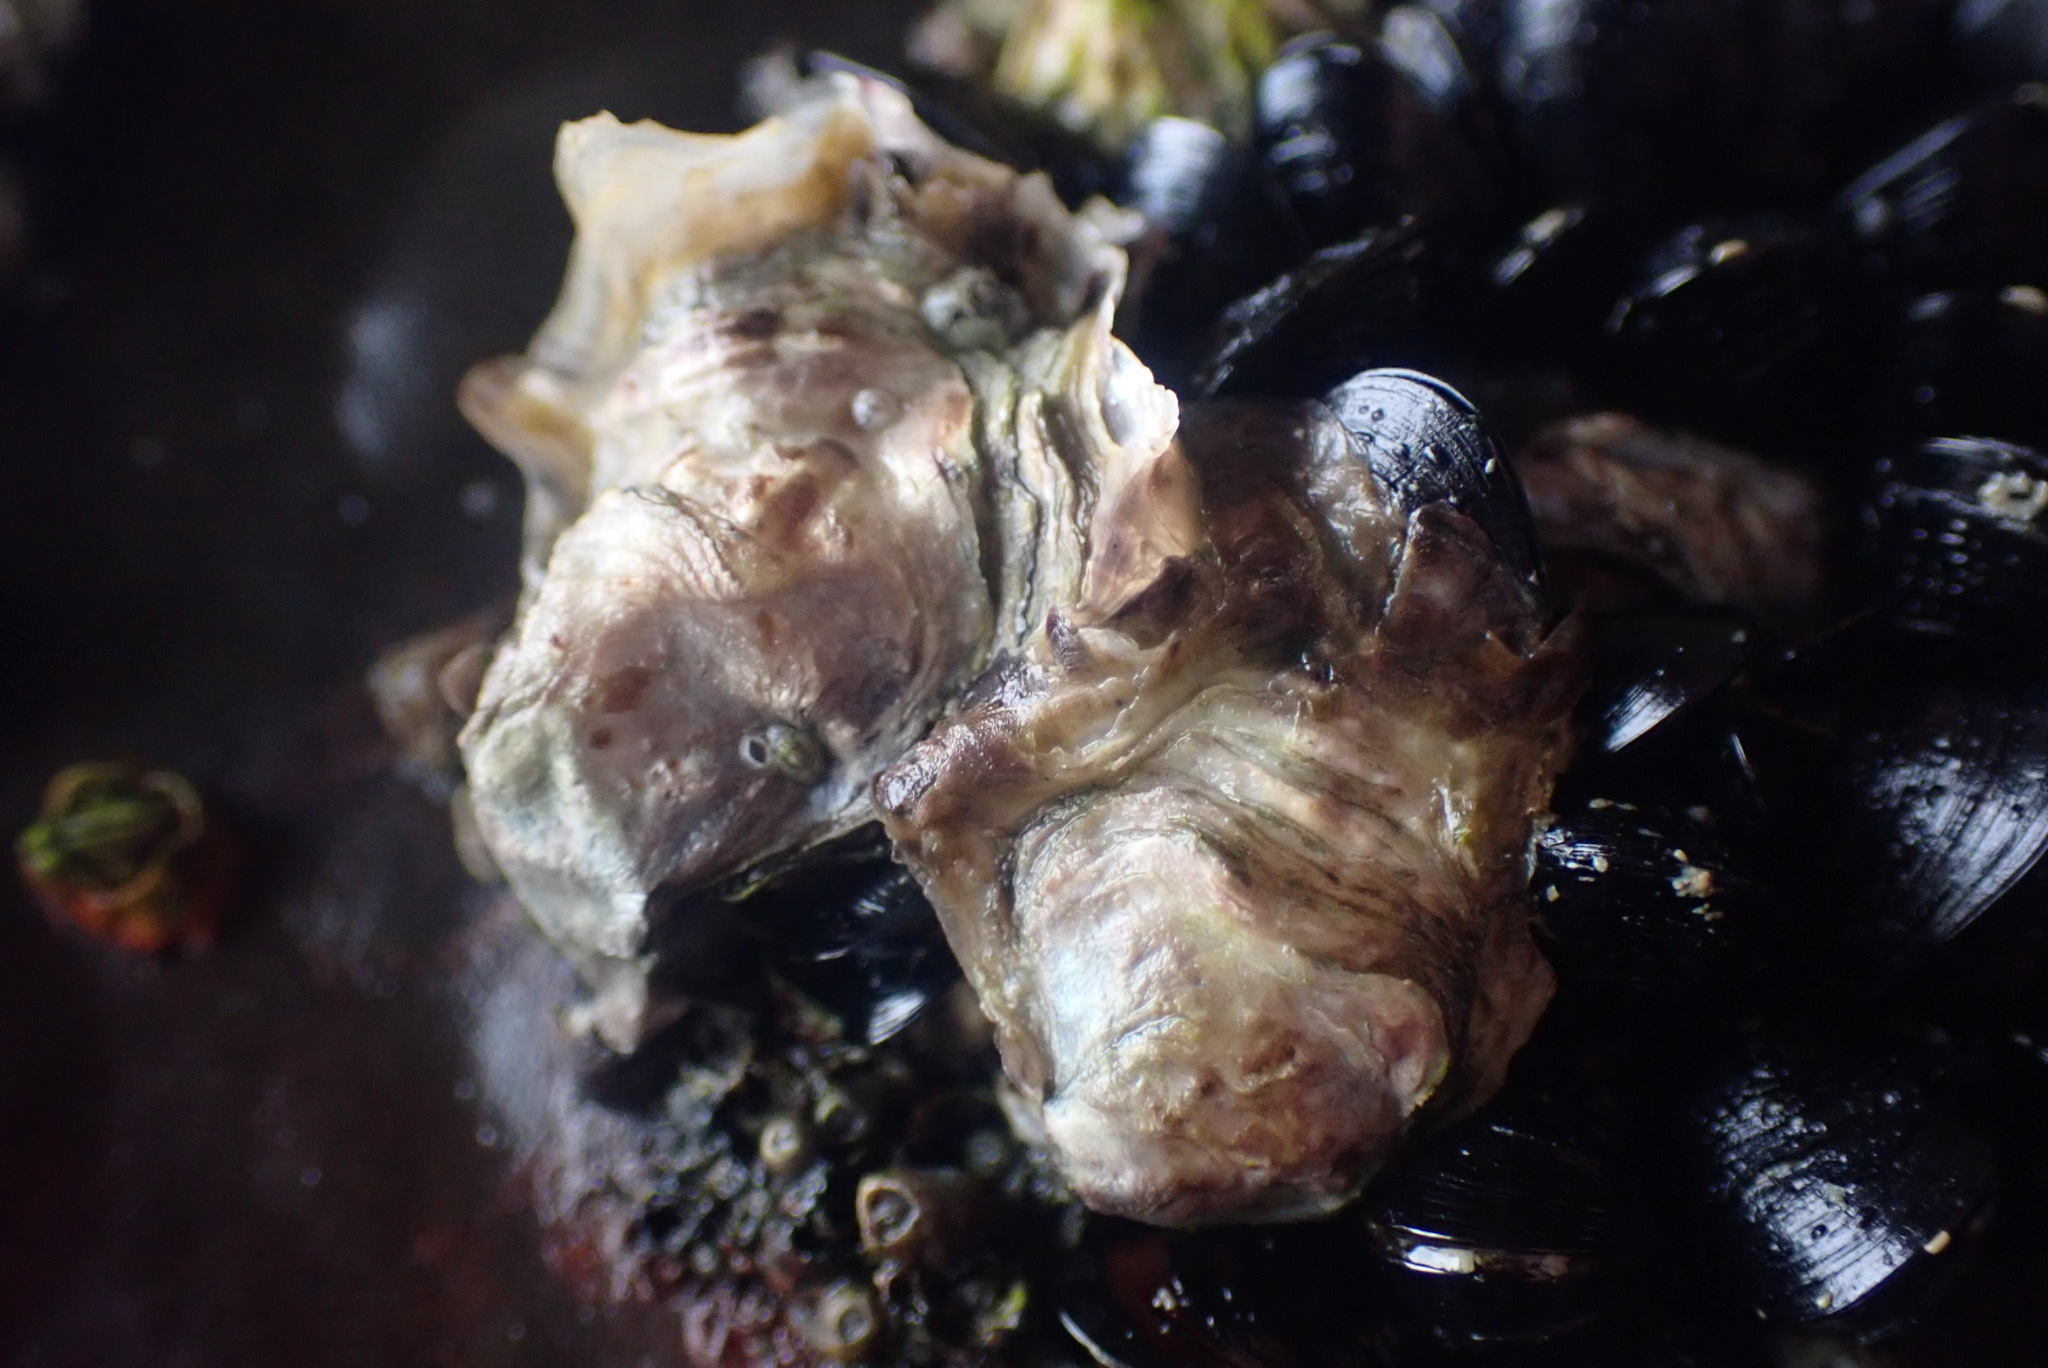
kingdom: Animalia
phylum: Mollusca
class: Bivalvia
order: Ostreida
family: Ostreidae
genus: Magallana
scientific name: Magallana gigas
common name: Pacific oyster
